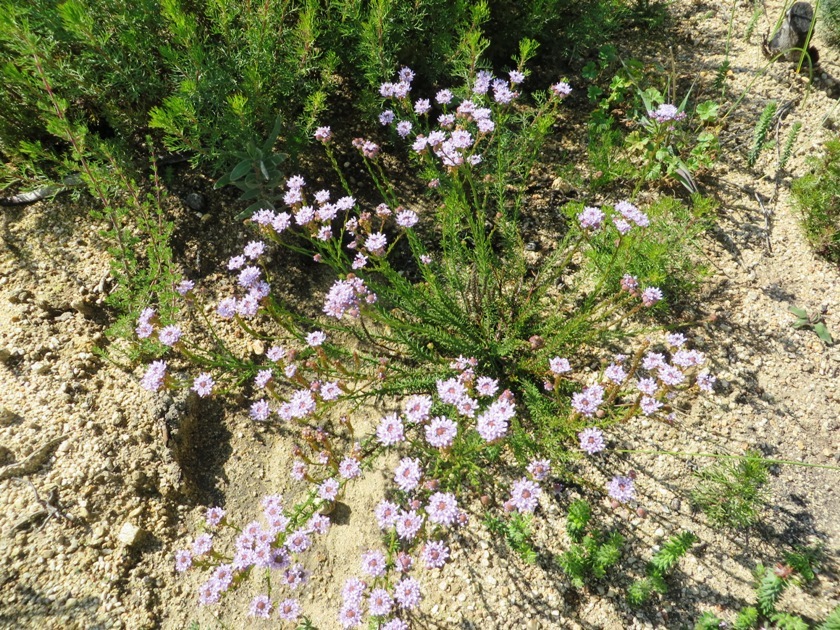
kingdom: Plantae
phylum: Tracheophyta
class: Magnoliopsida
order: Lamiales
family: Scrophulariaceae
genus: Pseudoselago
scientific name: Pseudoselago spuria
